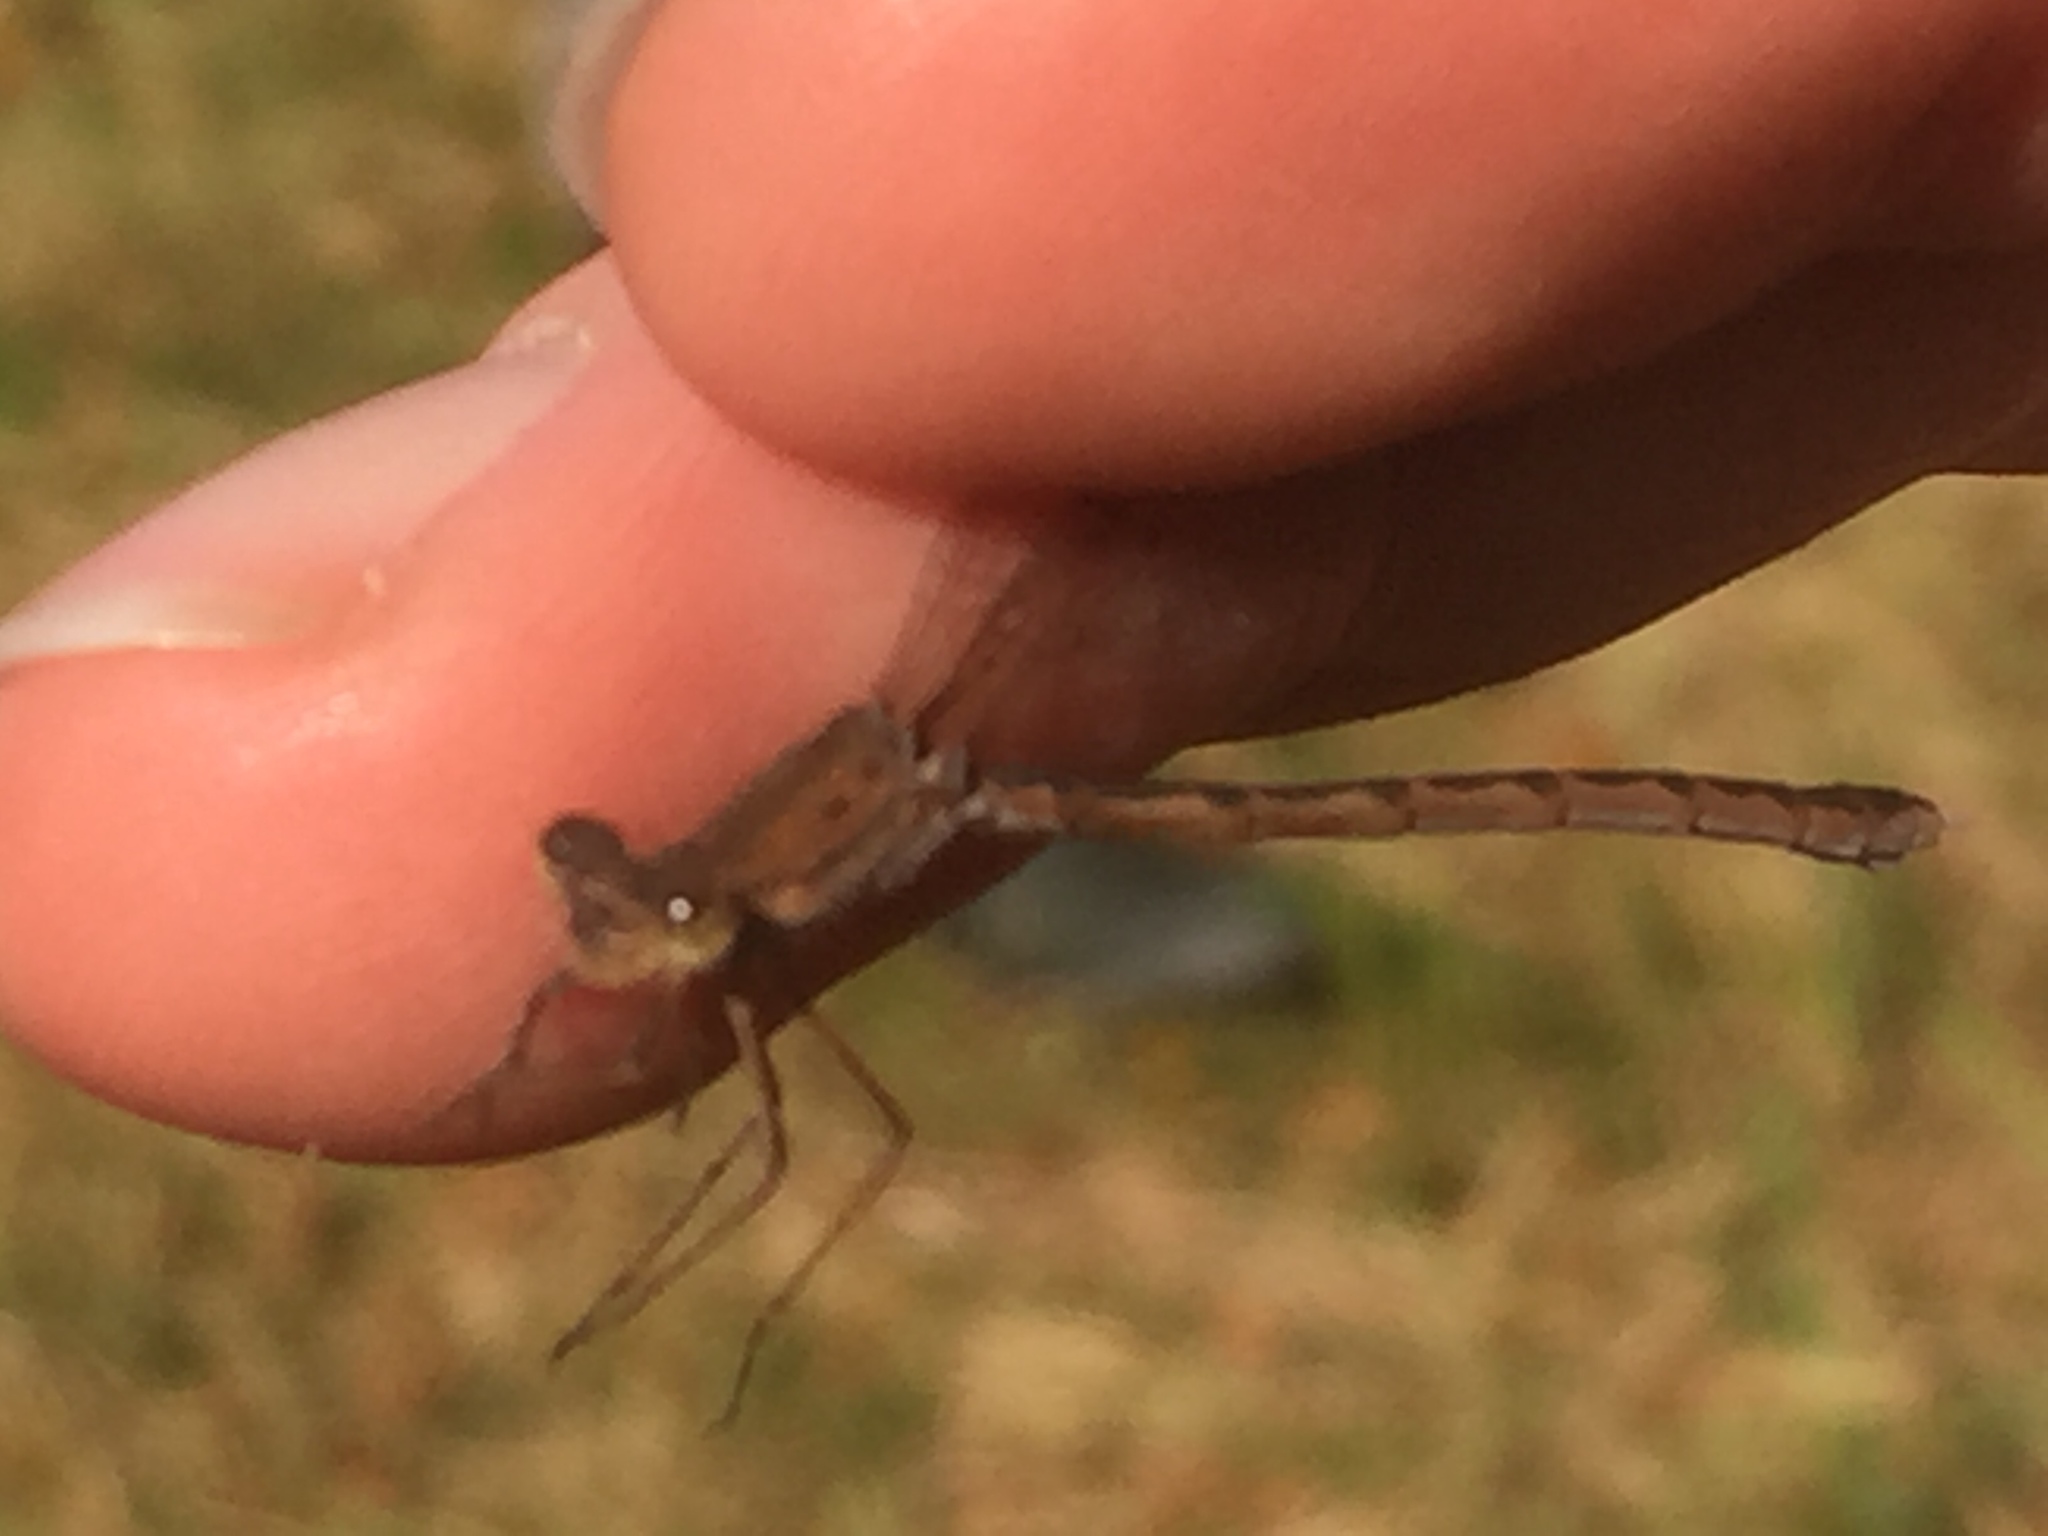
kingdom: Animalia
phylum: Arthropoda
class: Insecta
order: Odonata
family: Lestidae
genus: Sympecma
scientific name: Sympecma paedisca
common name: Siberian winter damsel
